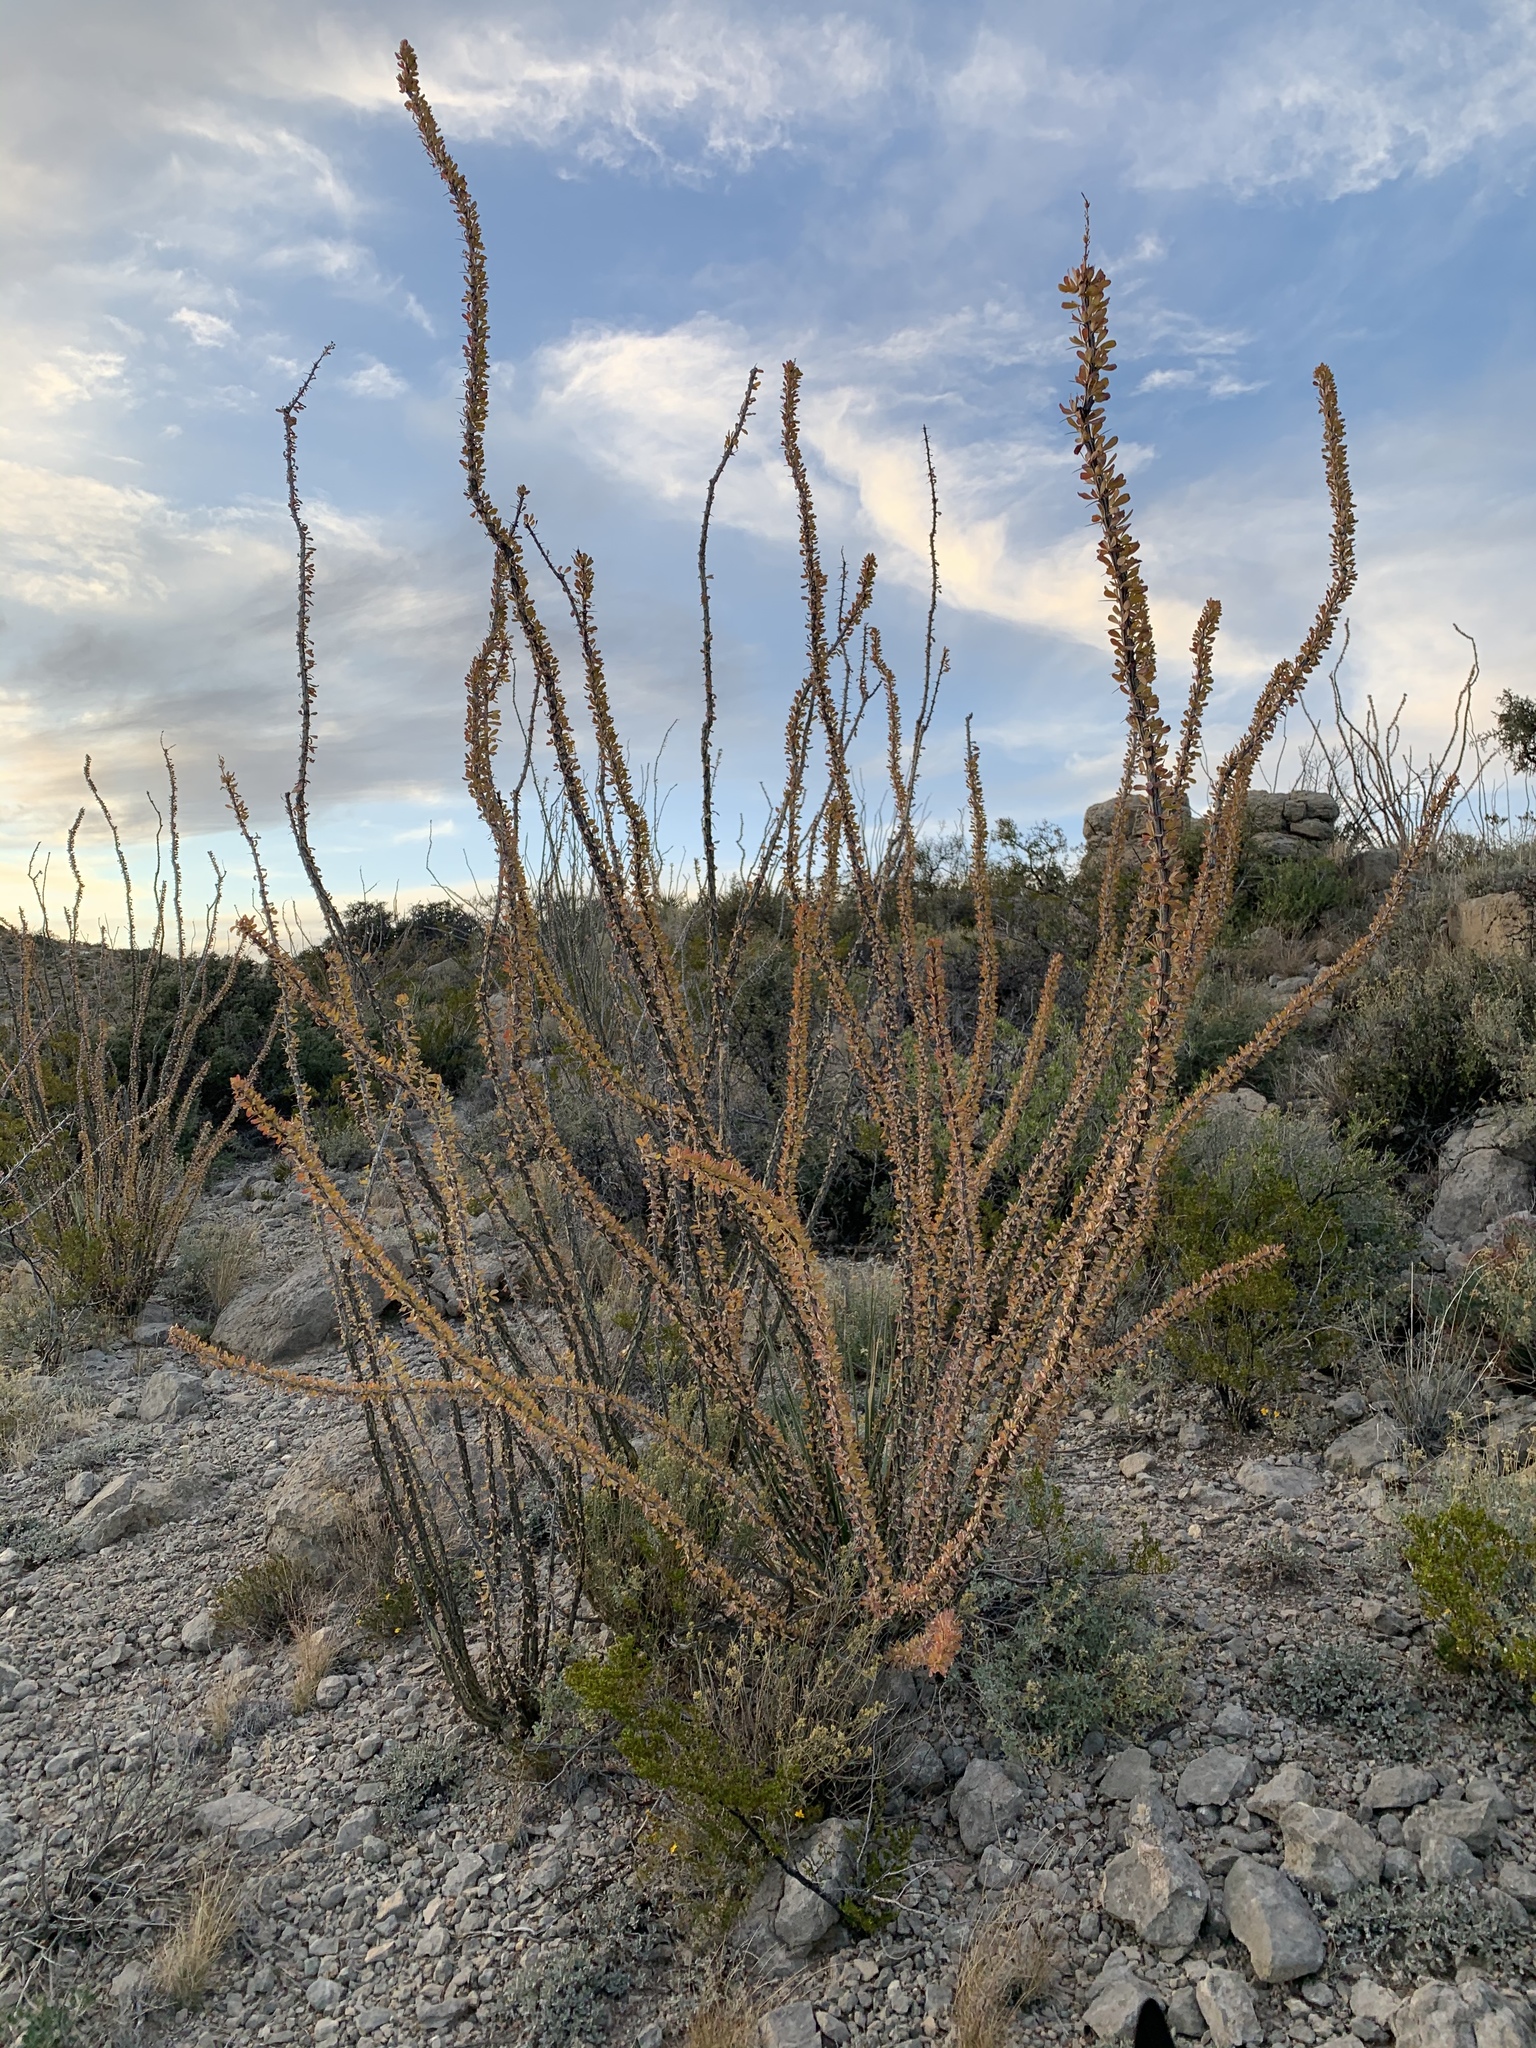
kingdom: Plantae
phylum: Tracheophyta
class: Magnoliopsida
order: Ericales
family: Fouquieriaceae
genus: Fouquieria
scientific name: Fouquieria splendens
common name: Vine-cactus
